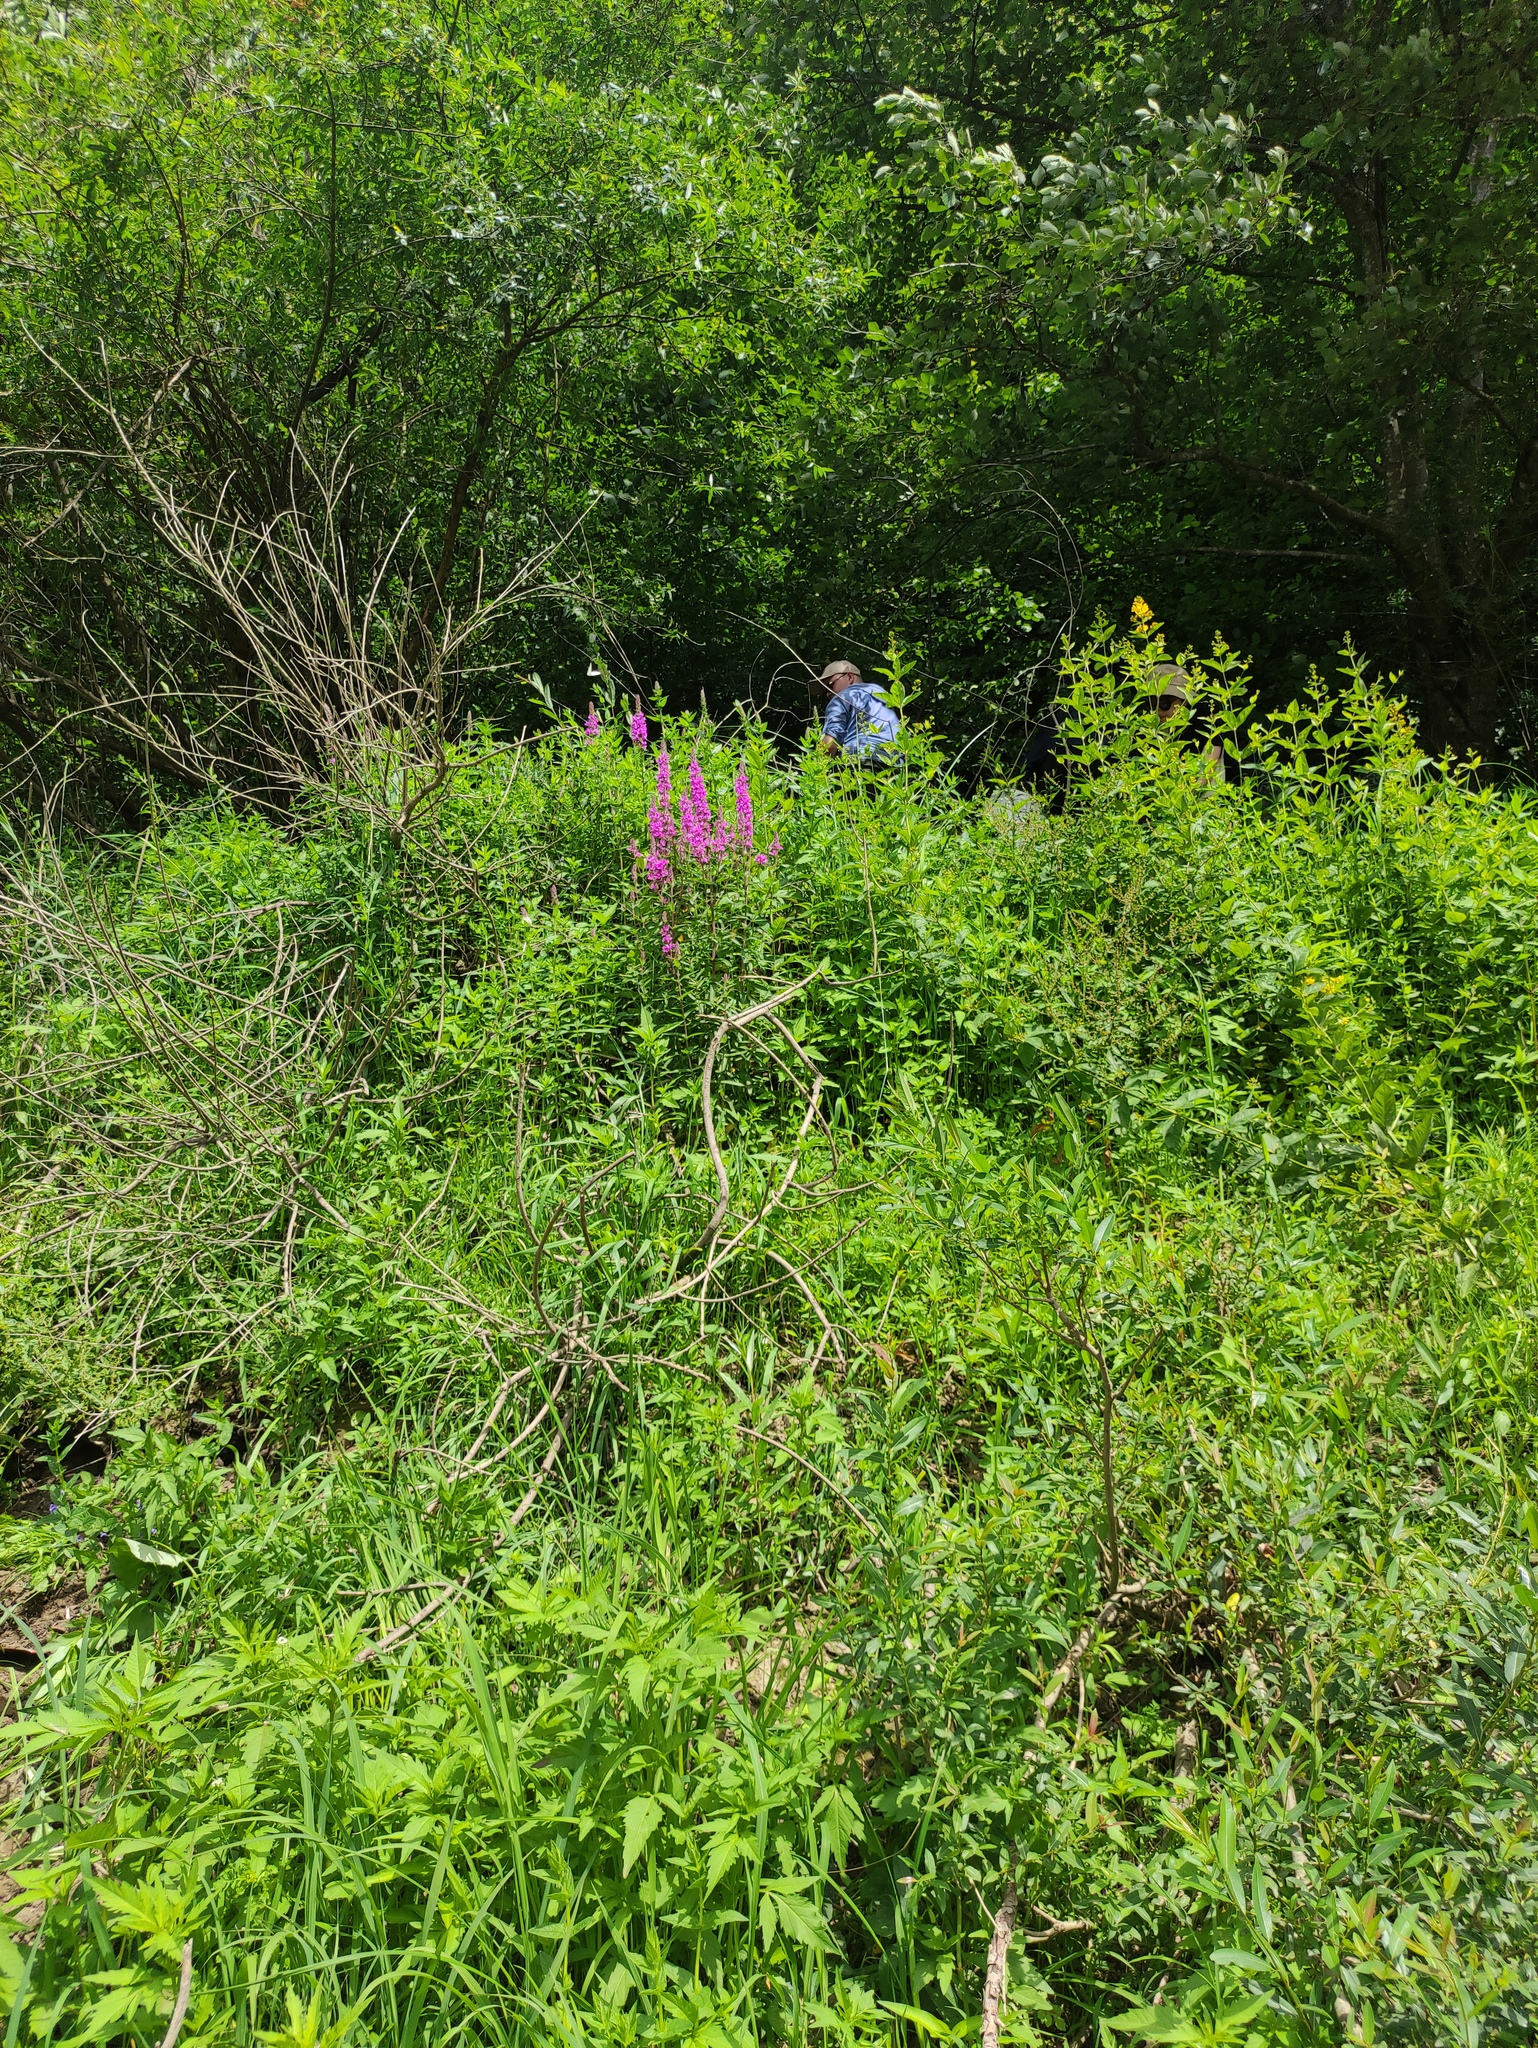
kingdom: Plantae
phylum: Tracheophyta
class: Magnoliopsida
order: Myrtales
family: Lythraceae
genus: Lythrum
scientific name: Lythrum salicaria
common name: Purple loosestrife
